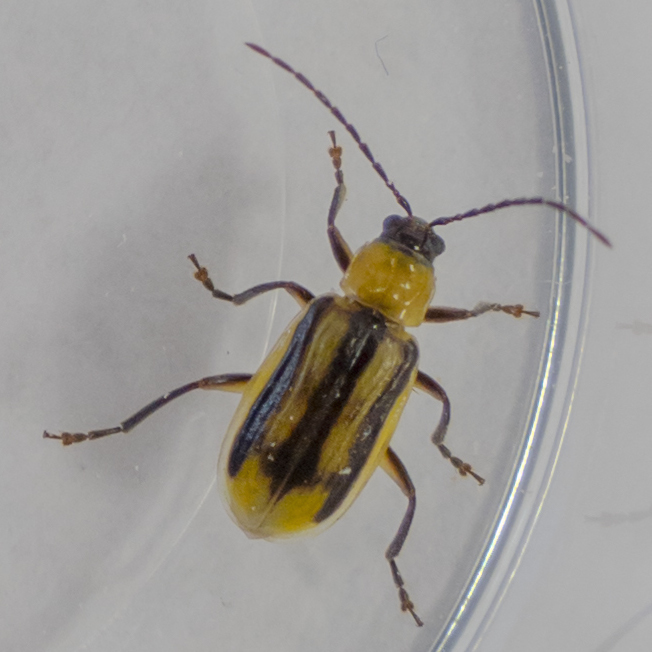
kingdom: Animalia
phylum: Arthropoda
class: Insecta
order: Coleoptera
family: Chrysomelidae
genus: Diabrotica
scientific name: Diabrotica virgifera
